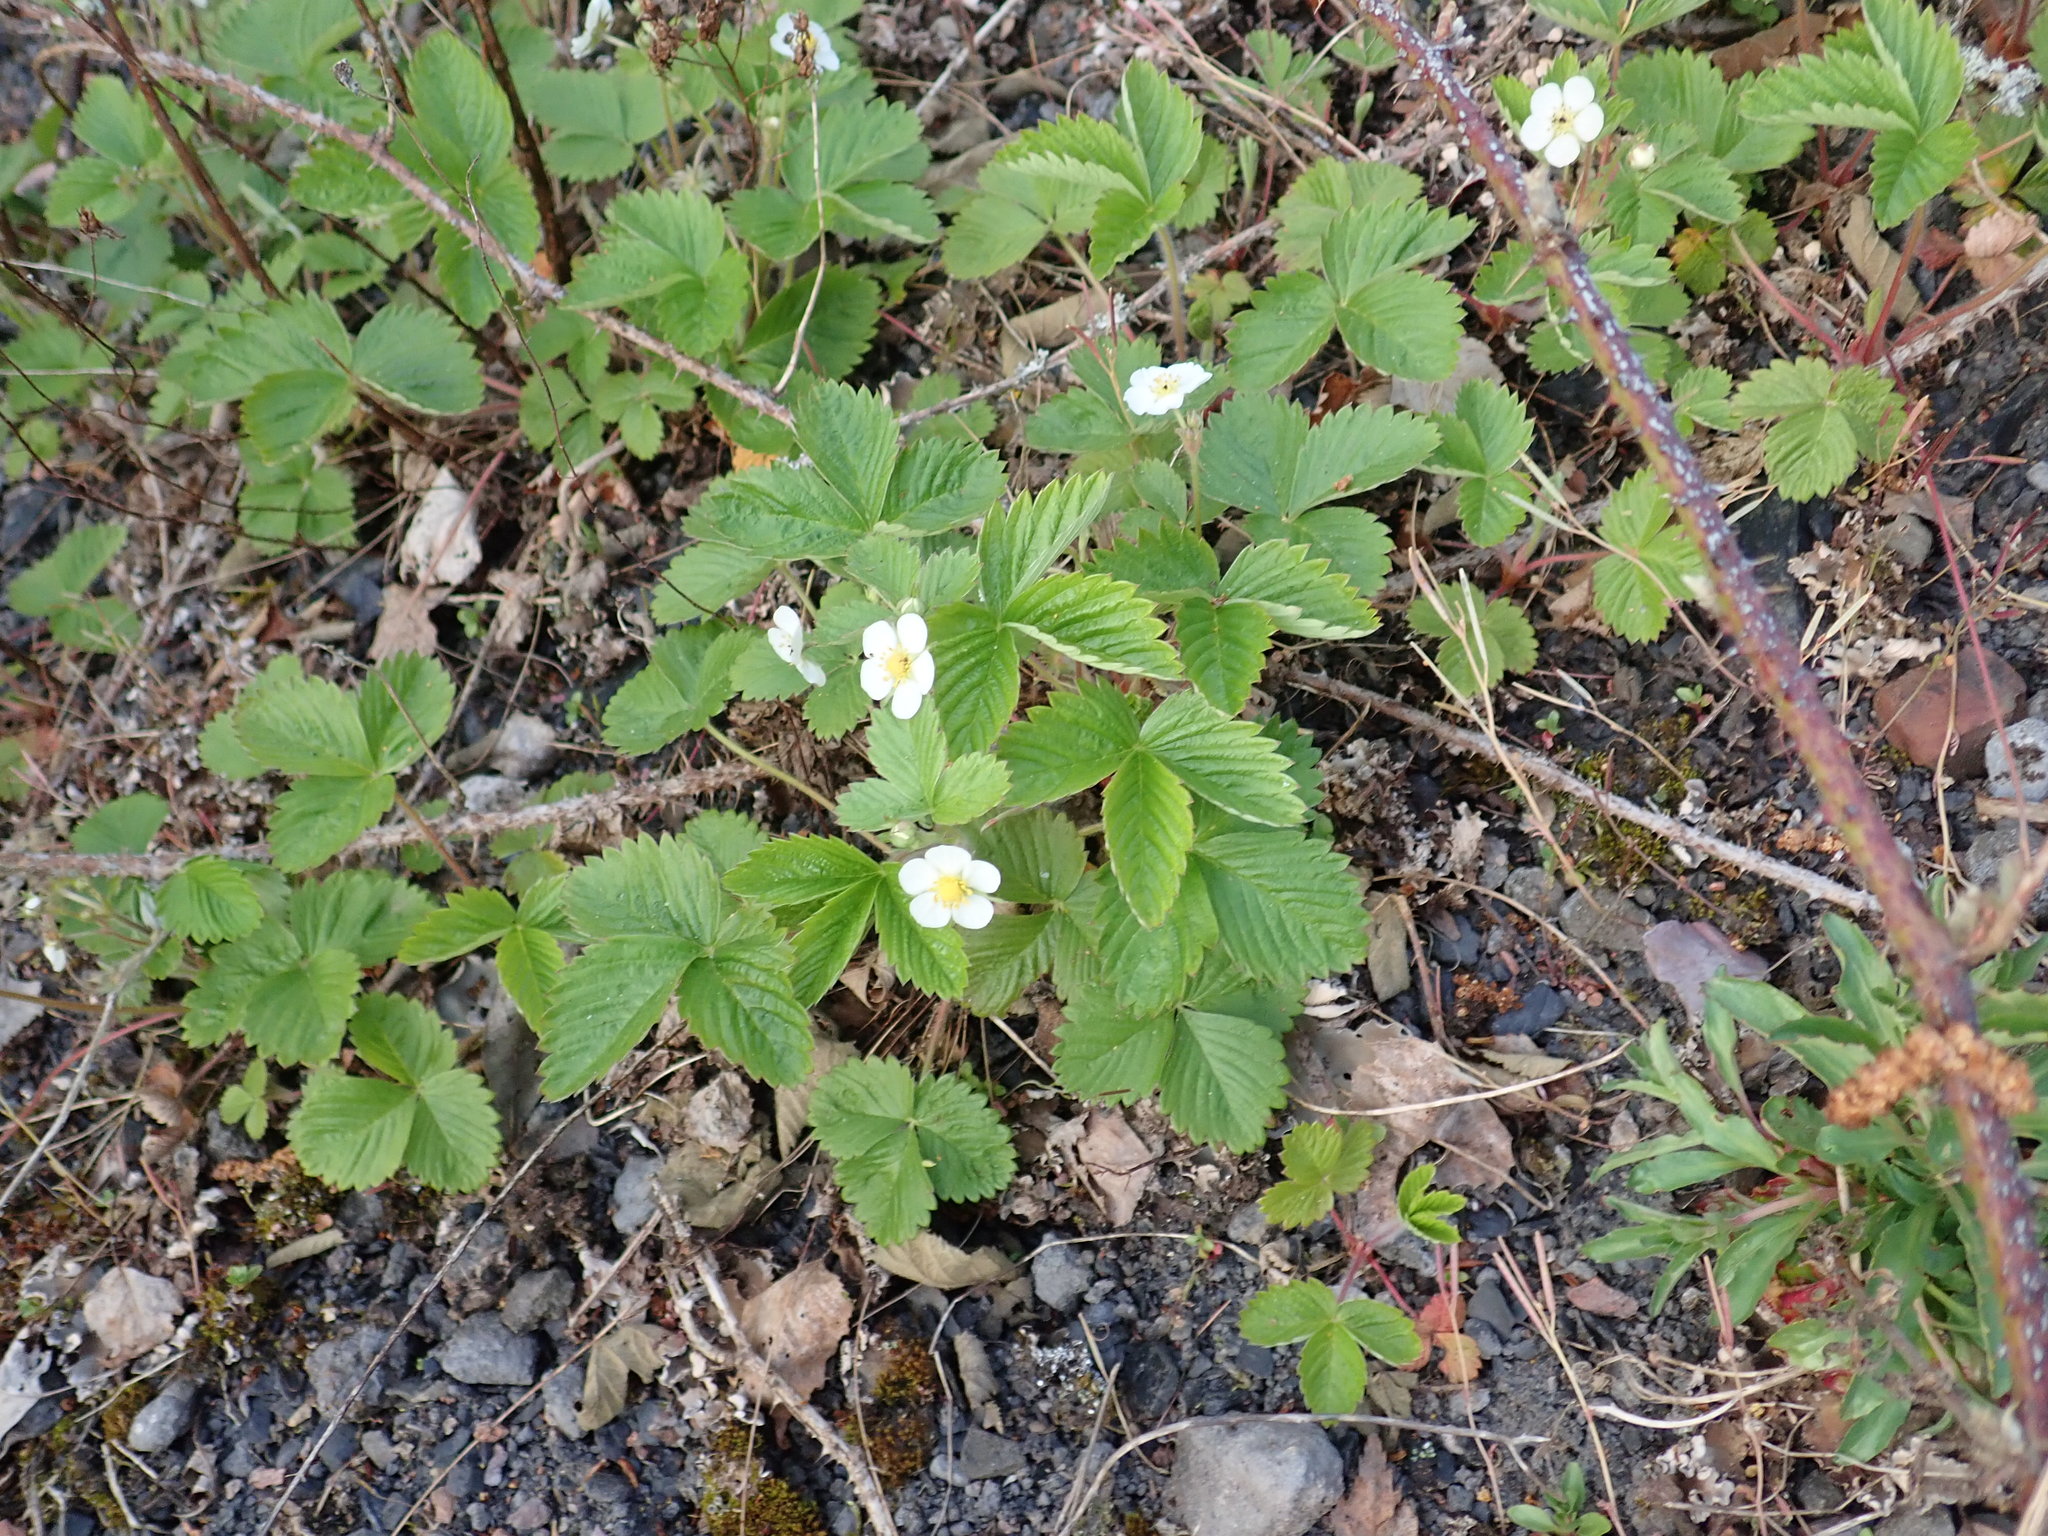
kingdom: Plantae
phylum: Tracheophyta
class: Magnoliopsida
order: Rosales
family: Rosaceae
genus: Fragaria
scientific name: Fragaria vesca
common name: Wild strawberry
